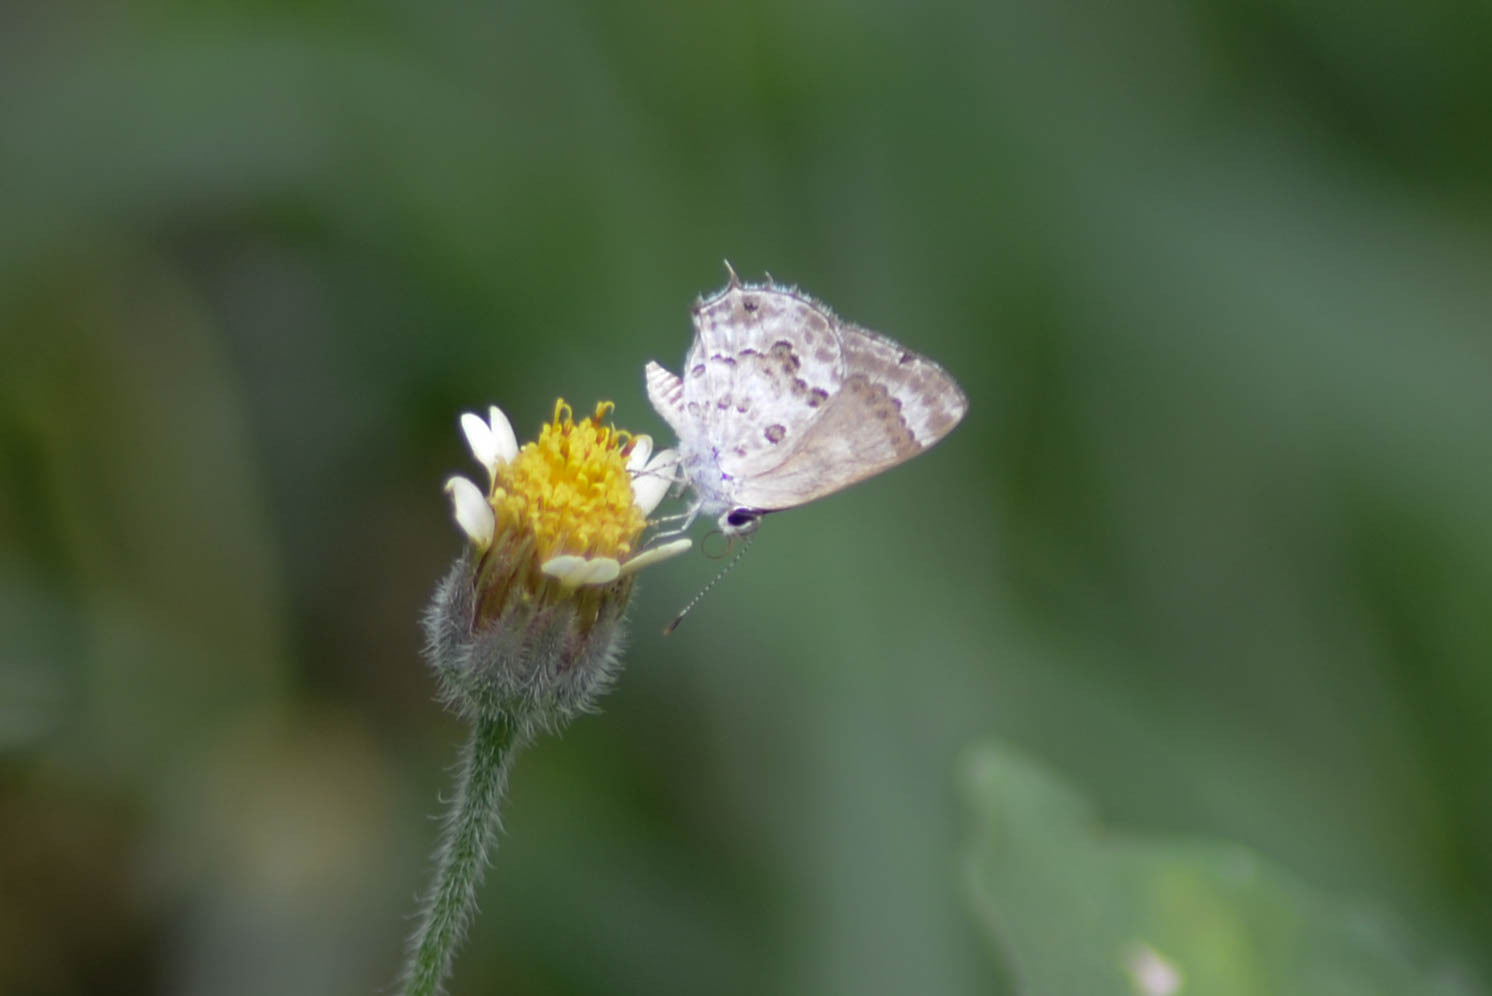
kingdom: Animalia
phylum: Arthropoda
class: Insecta
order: Lepidoptera
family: Lycaenidae
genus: Strymon
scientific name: Strymon astiocha
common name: Gray-spotted scrub-hairstreak
